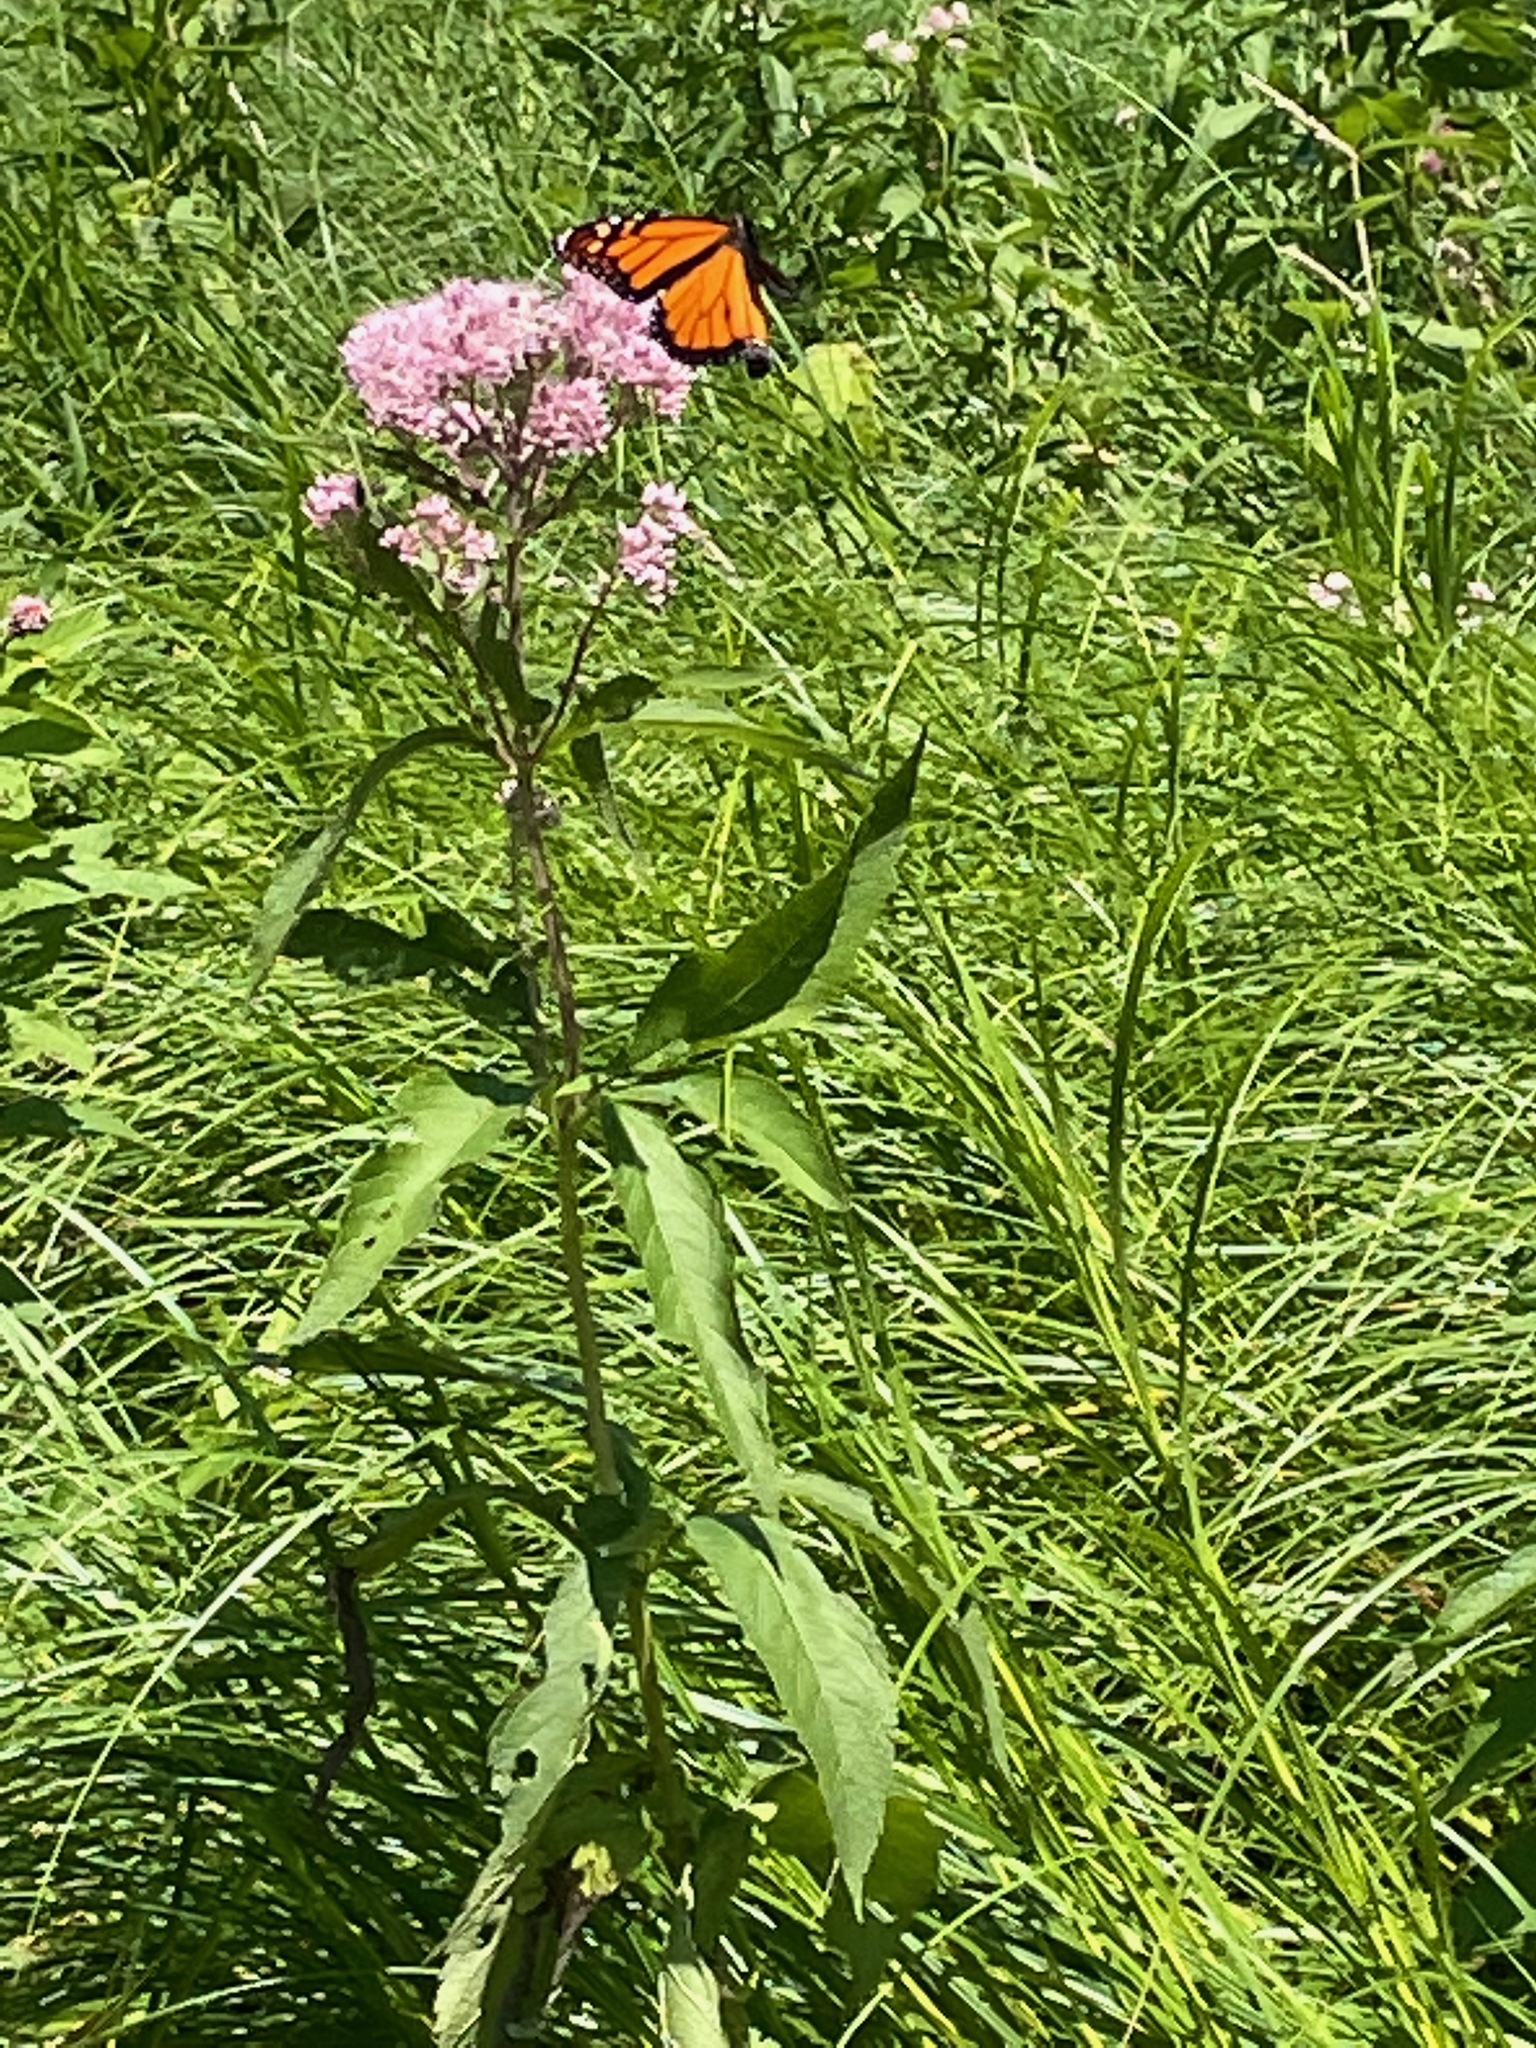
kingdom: Animalia
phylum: Arthropoda
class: Insecta
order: Lepidoptera
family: Nymphalidae
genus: Danaus
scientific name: Danaus plexippus
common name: Monarch
